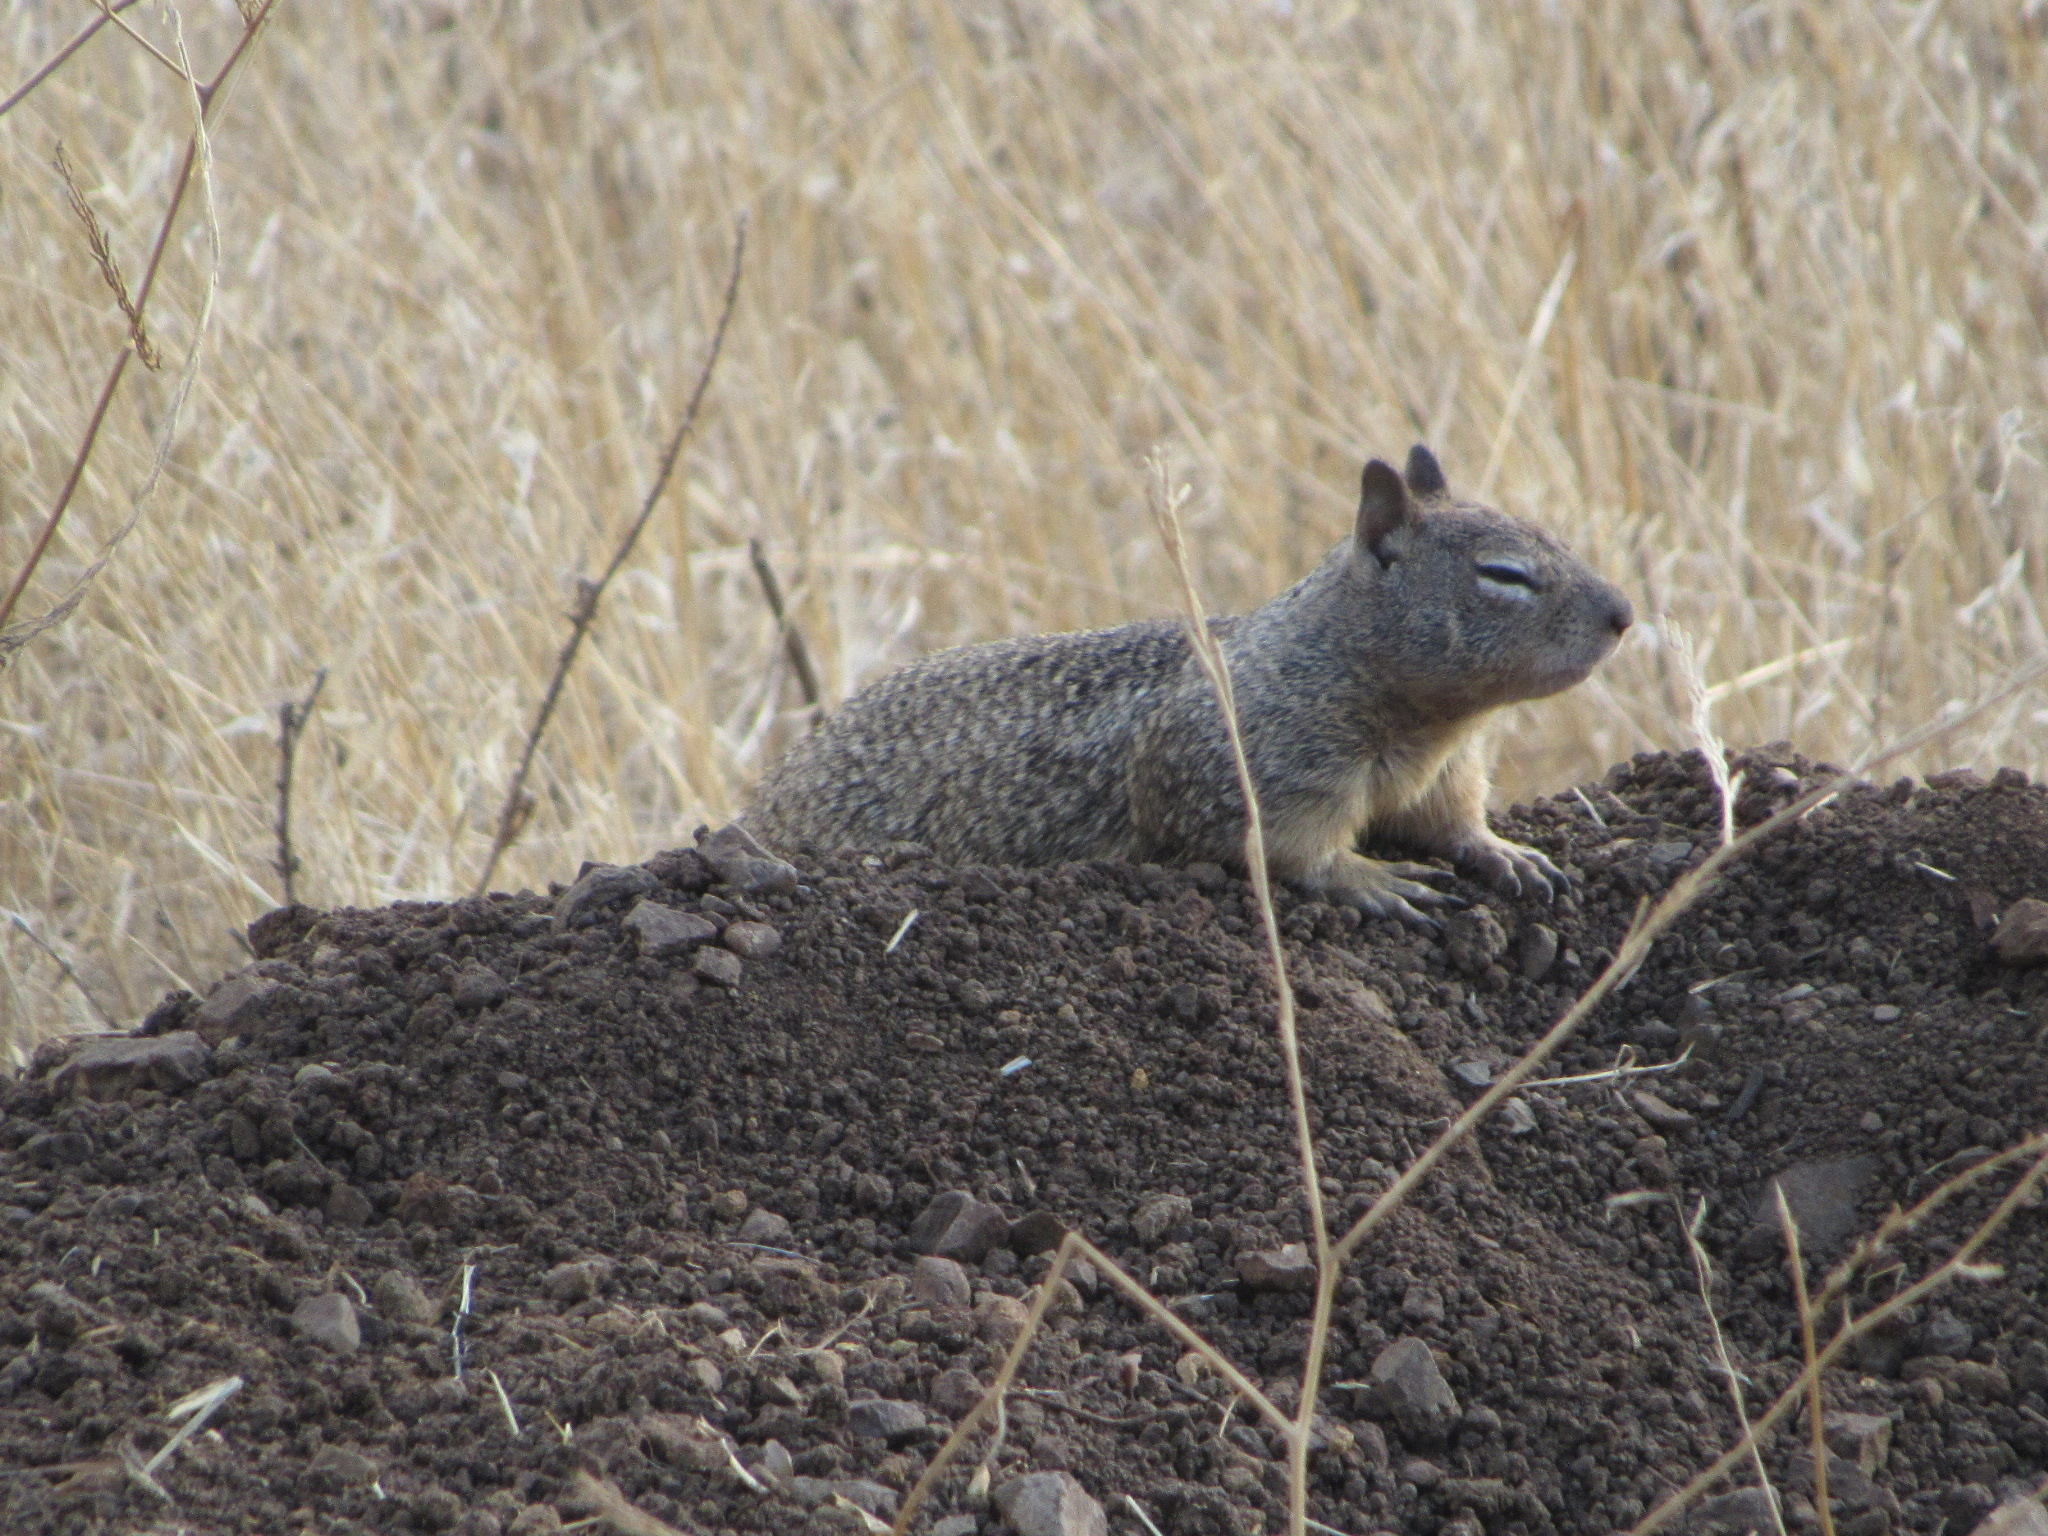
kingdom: Animalia
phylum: Chordata
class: Mammalia
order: Rodentia
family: Sciuridae
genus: Otospermophilus
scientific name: Otospermophilus beecheyi
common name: California ground squirrel
